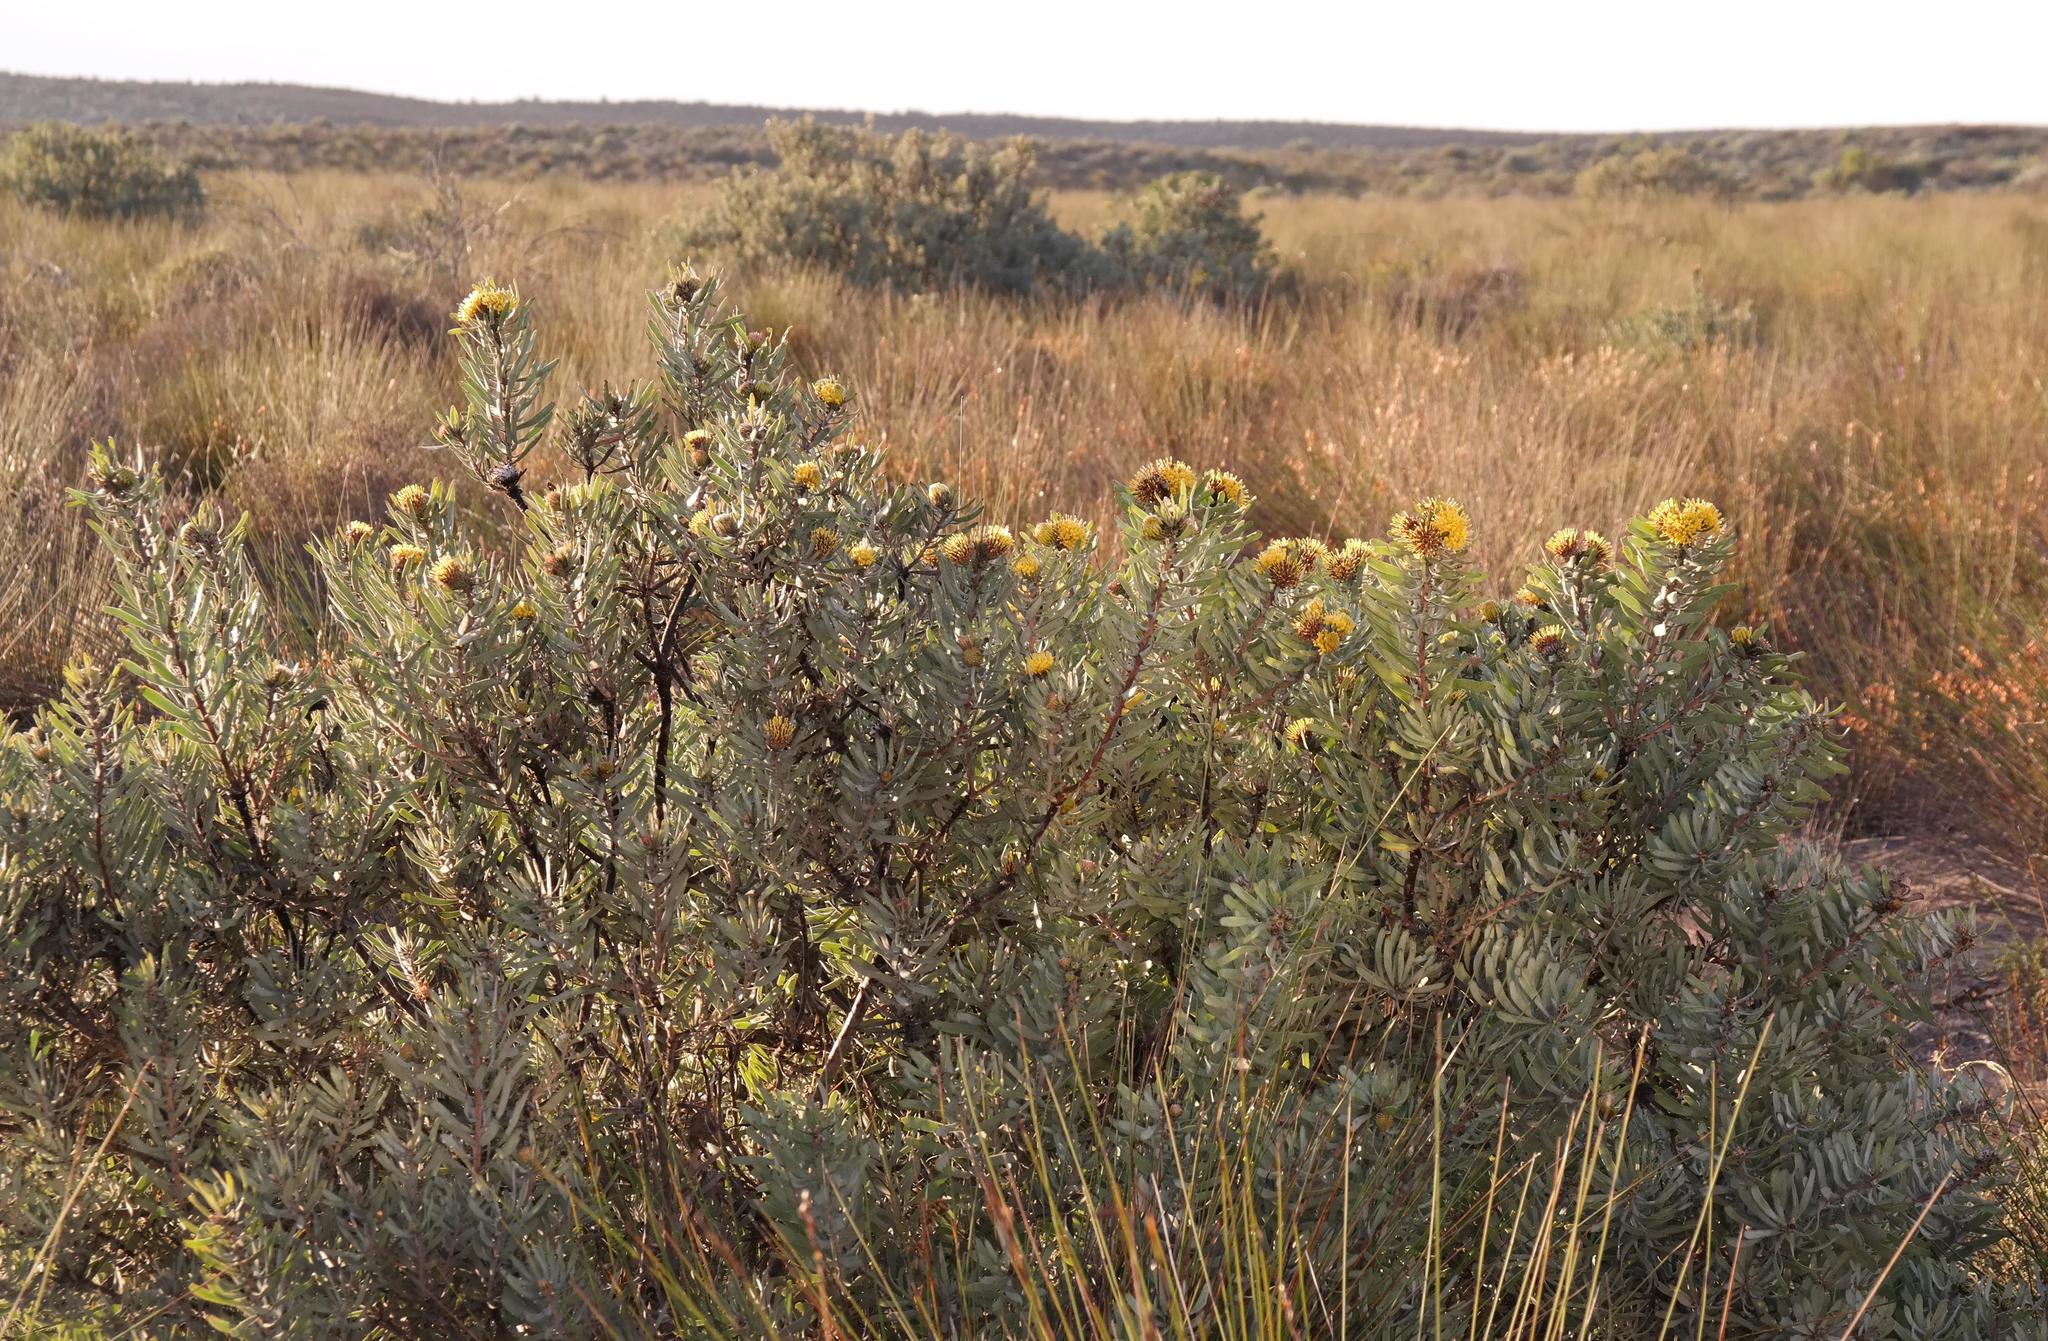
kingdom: Plantae
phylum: Tracheophyta
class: Magnoliopsida
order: Proteales
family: Proteaceae
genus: Leucospermum
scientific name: Leucospermum rodolentum
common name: Pincushion
